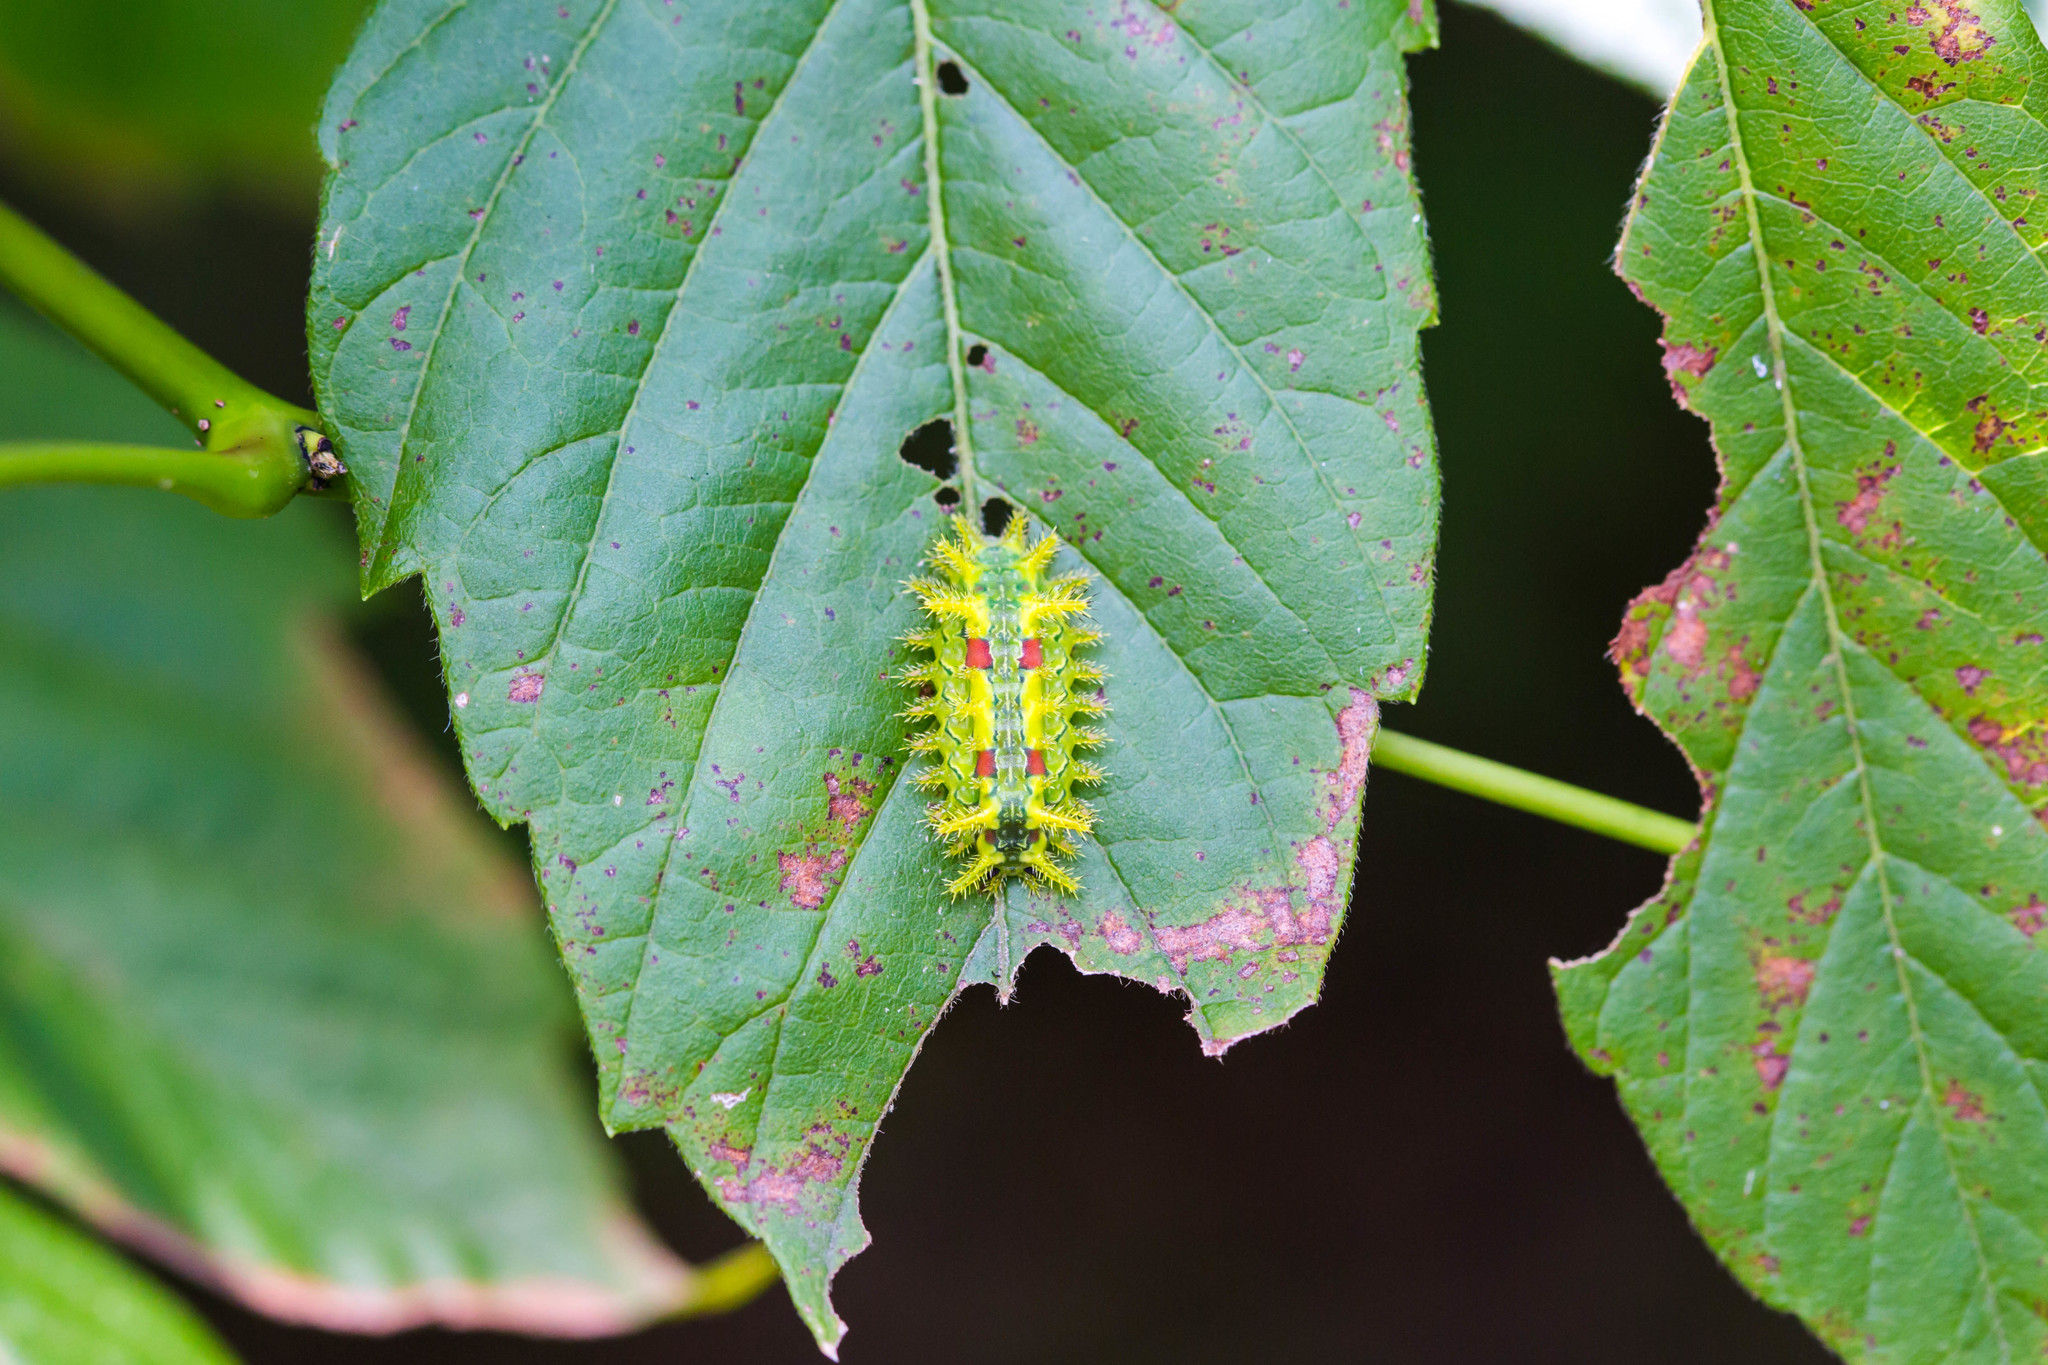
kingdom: Animalia
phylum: Arthropoda
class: Insecta
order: Lepidoptera
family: Limacodidae
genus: Euclea
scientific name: Euclea delphinii
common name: Spiny oak-slug moth
